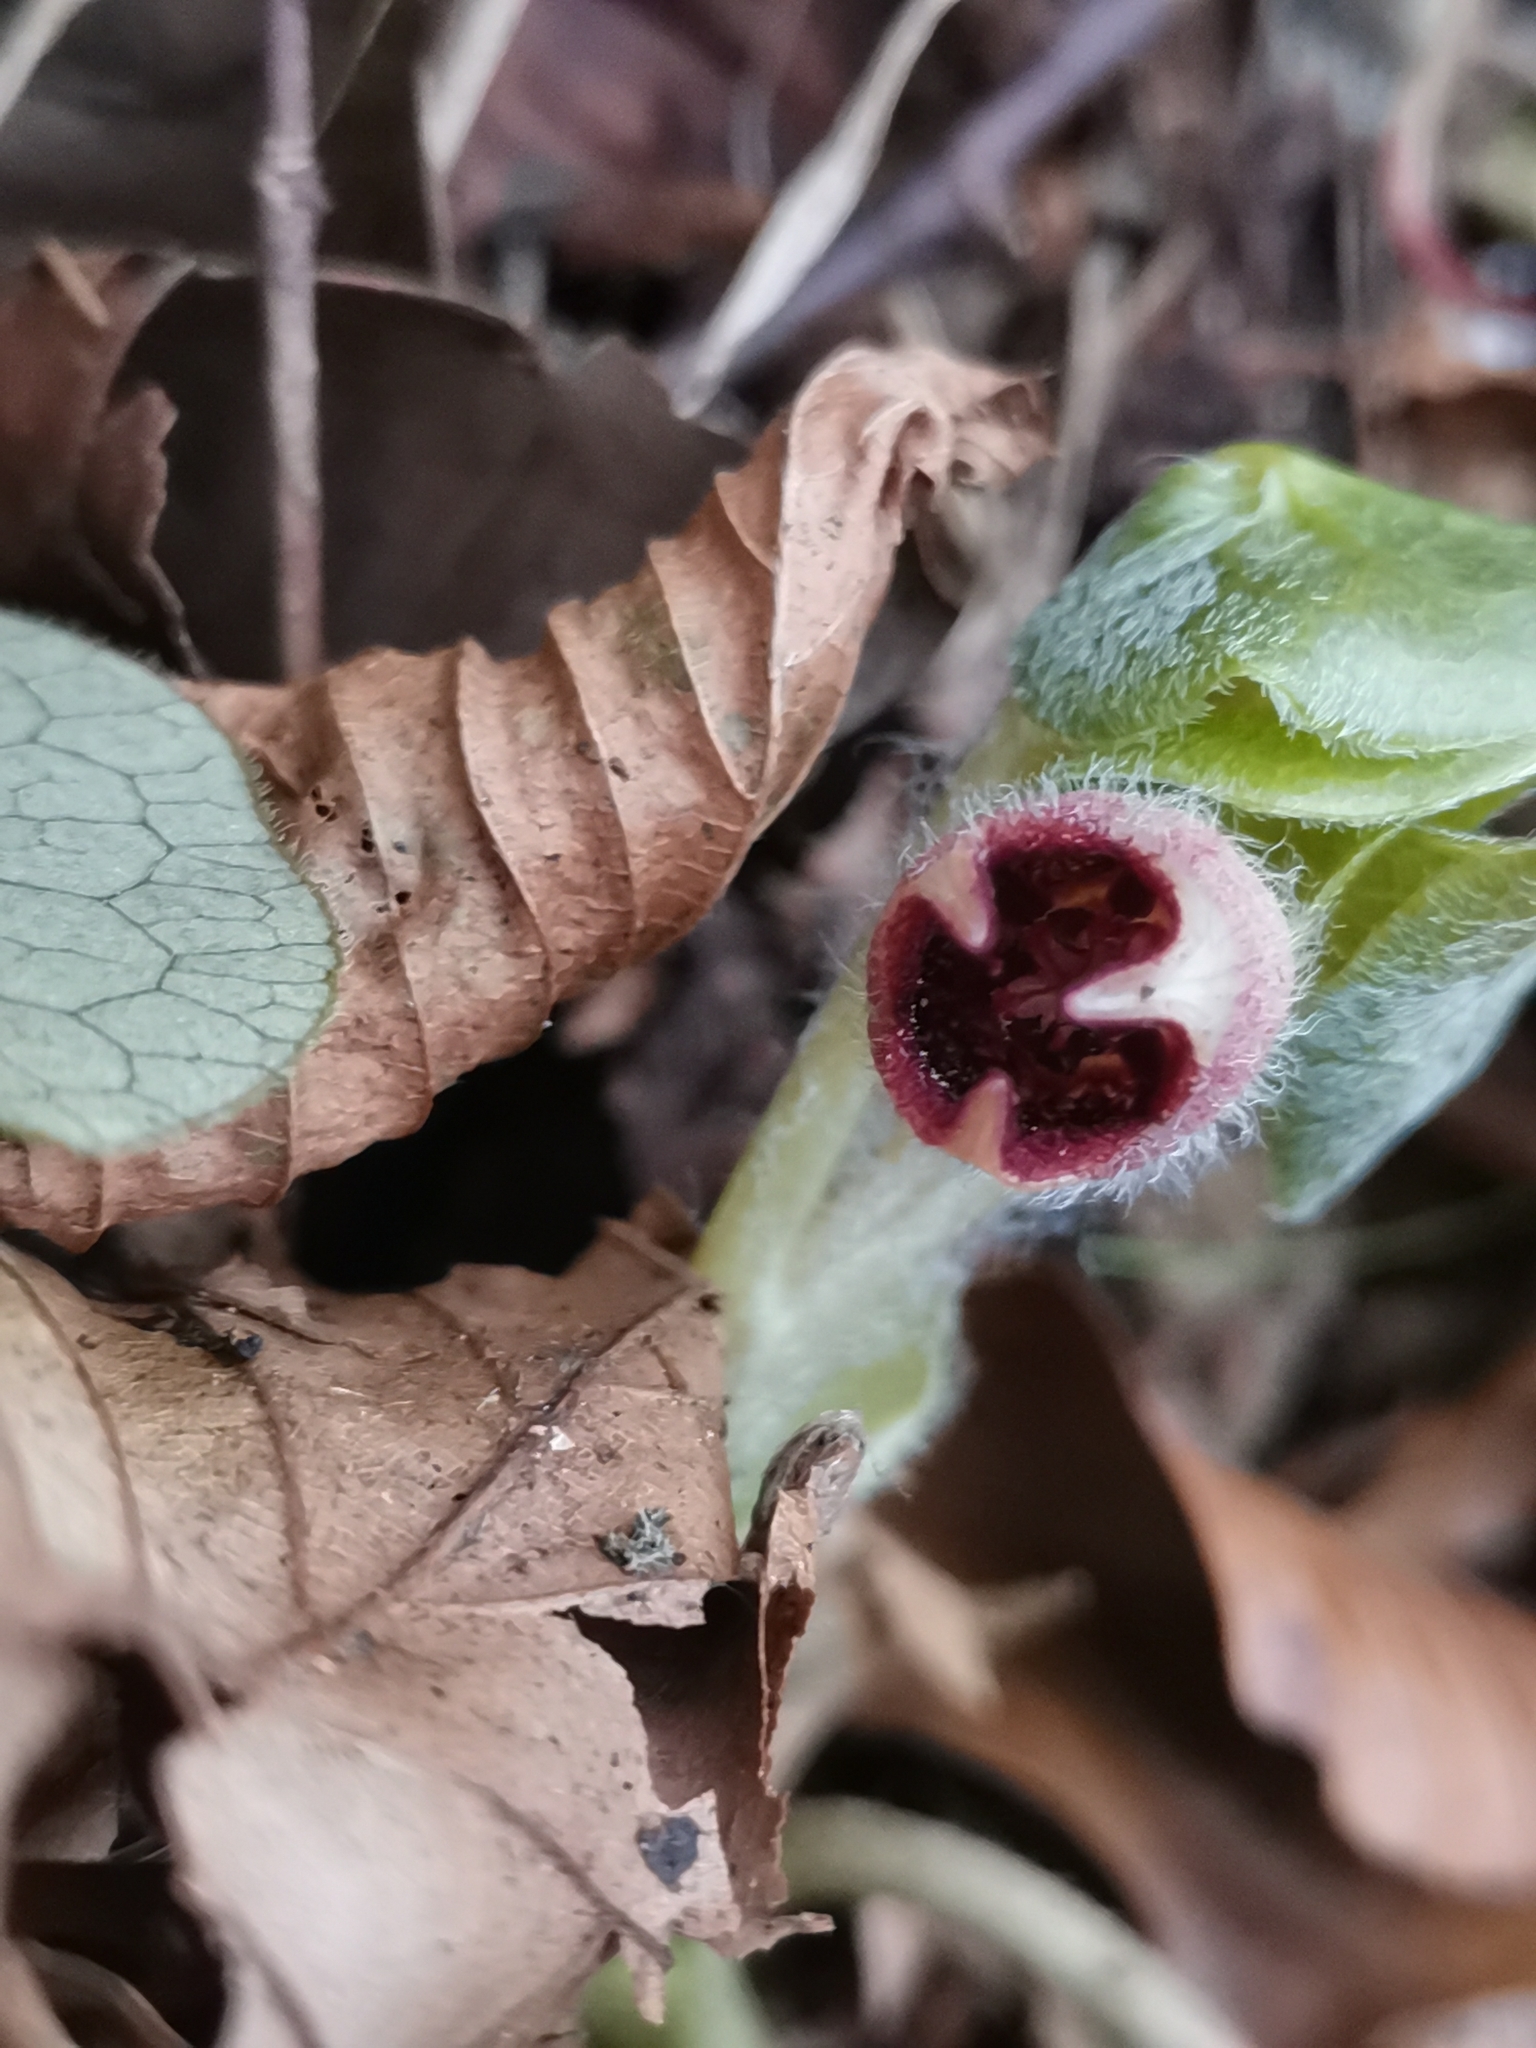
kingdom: Plantae
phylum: Tracheophyta
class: Magnoliopsida
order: Piperales
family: Aristolochiaceae
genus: Asarum
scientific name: Asarum europaeum
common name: Asarabacca
